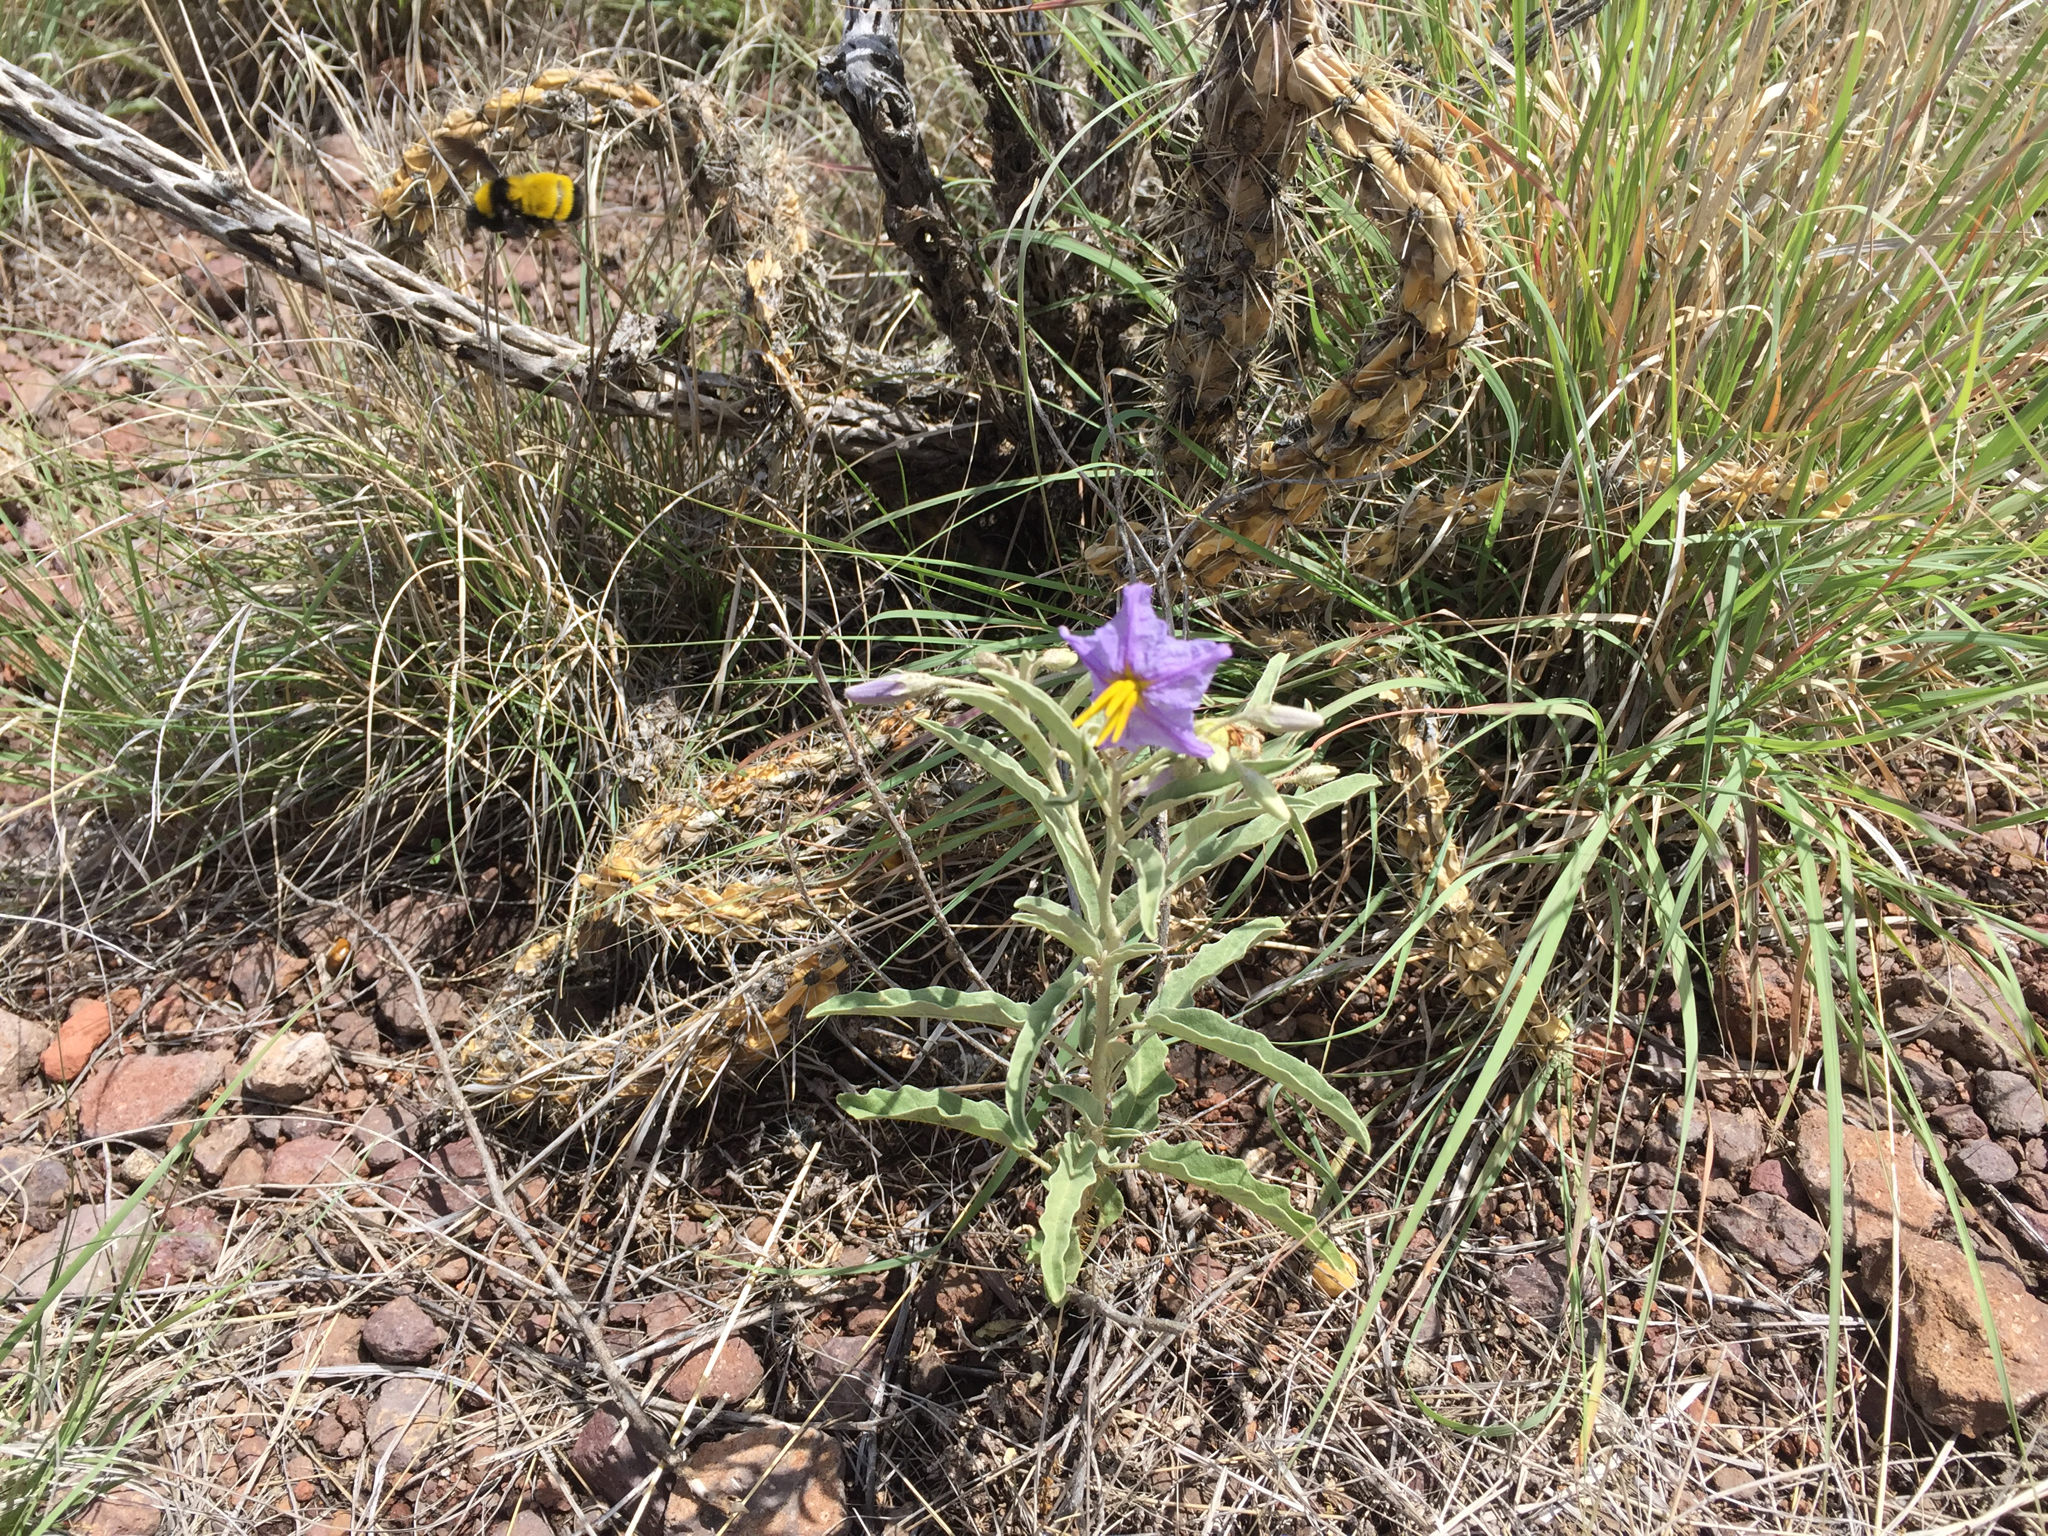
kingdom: Animalia
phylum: Arthropoda
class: Insecta
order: Hymenoptera
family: Apidae
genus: Bombus
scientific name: Bombus sonorus
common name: Sonoran bumble bee
